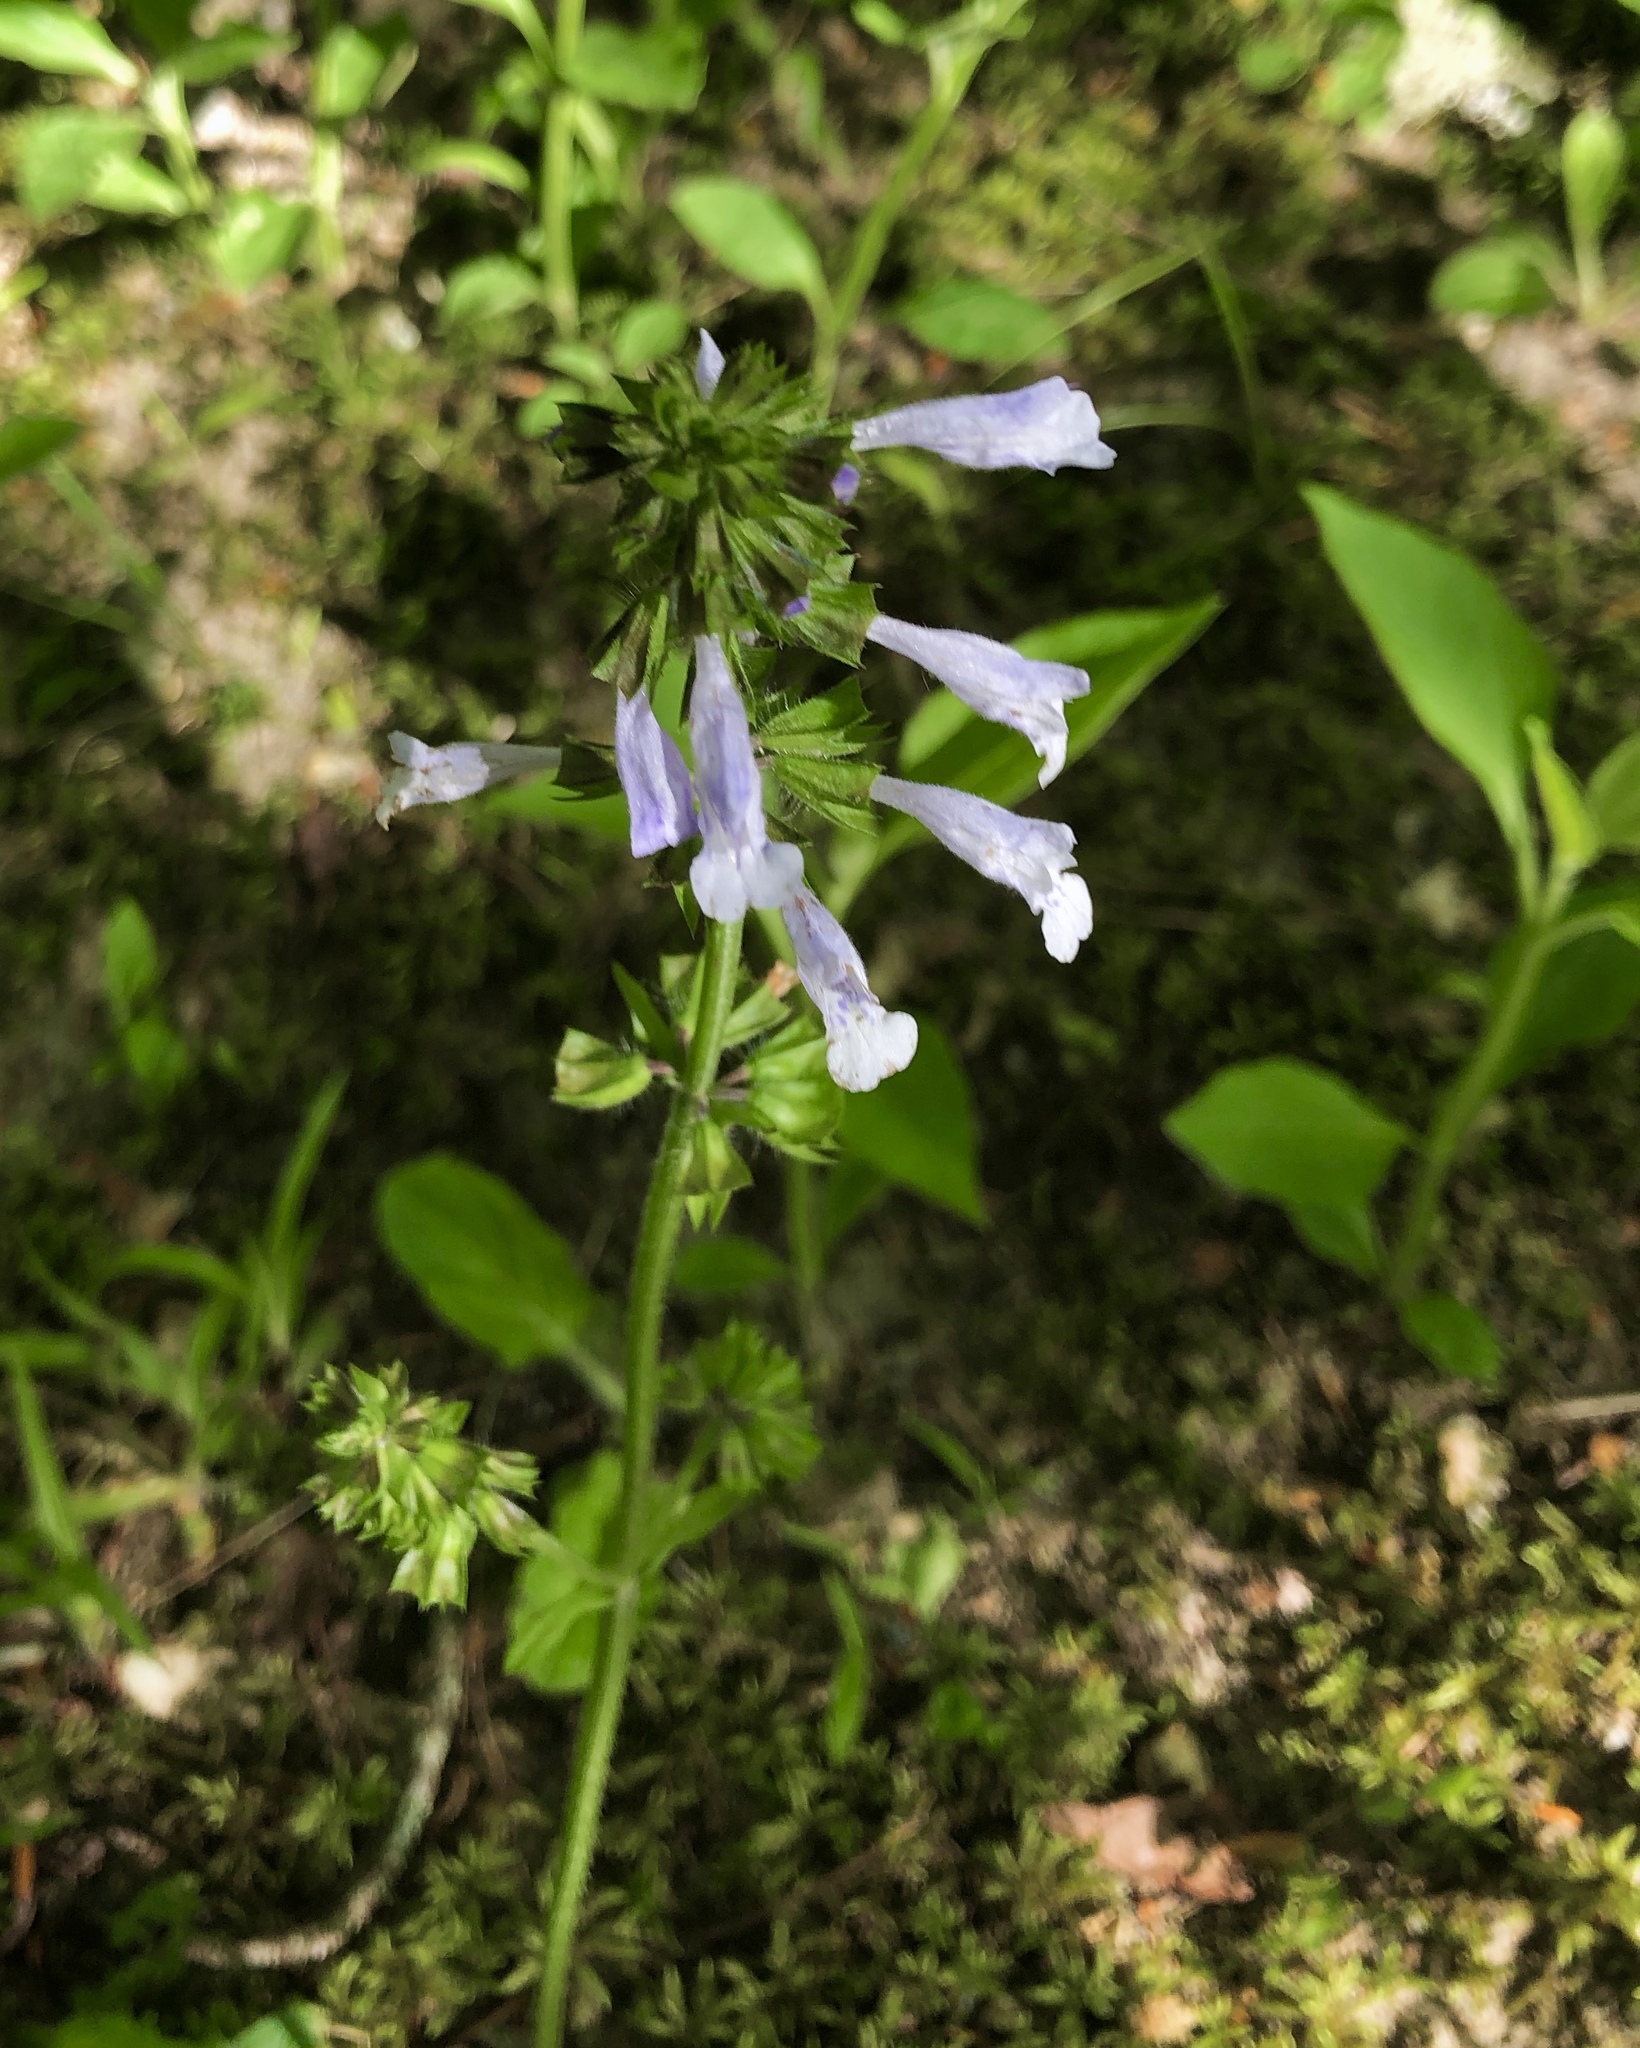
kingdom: Plantae
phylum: Tracheophyta
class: Magnoliopsida
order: Lamiales
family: Lamiaceae
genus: Salvia
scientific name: Salvia lyrata
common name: Cancerweed
